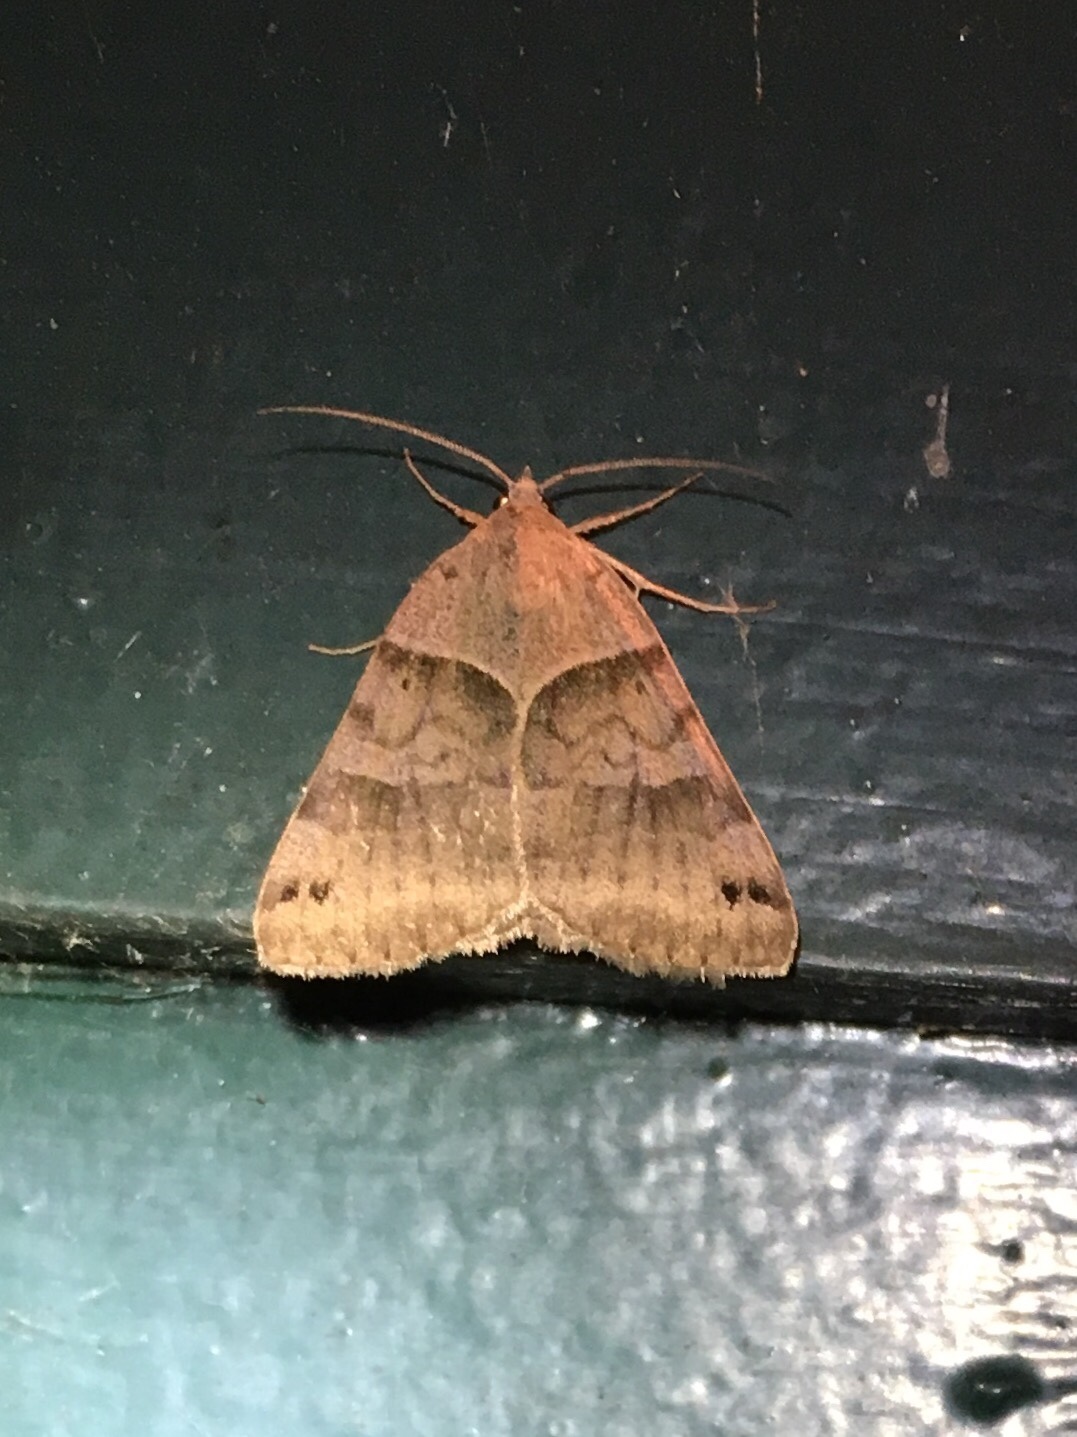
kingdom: Animalia
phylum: Arthropoda
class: Insecta
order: Lepidoptera
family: Erebidae
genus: Caenurgina
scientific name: Caenurgina erechtea
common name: Forage looper moth
